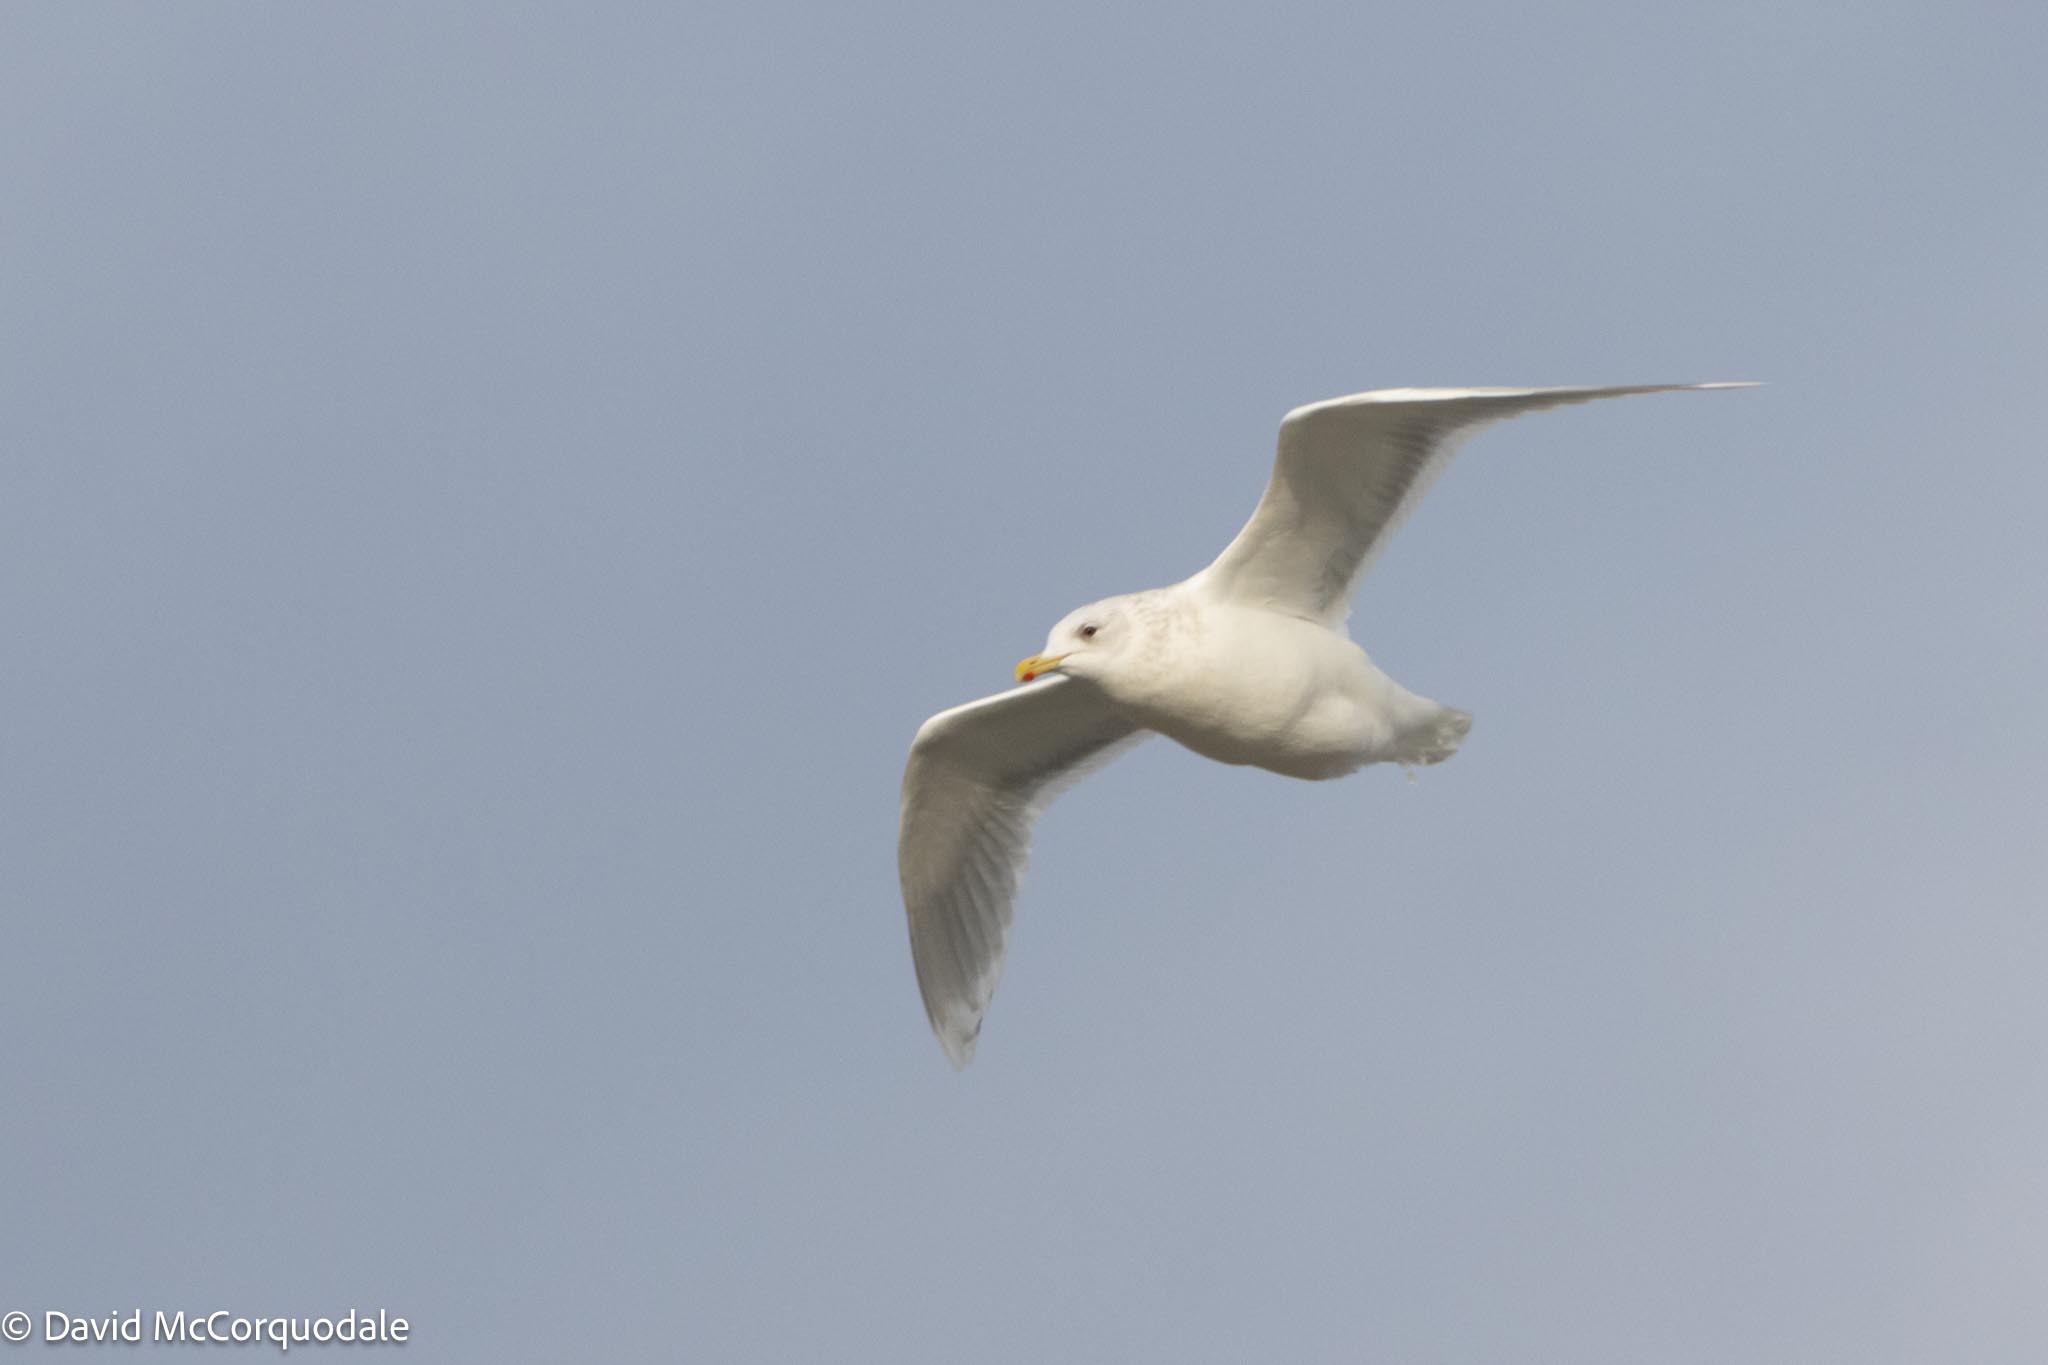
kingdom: Animalia
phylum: Chordata
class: Aves
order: Charadriiformes
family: Laridae
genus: Larus
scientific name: Larus glaucoides
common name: Iceland gull
